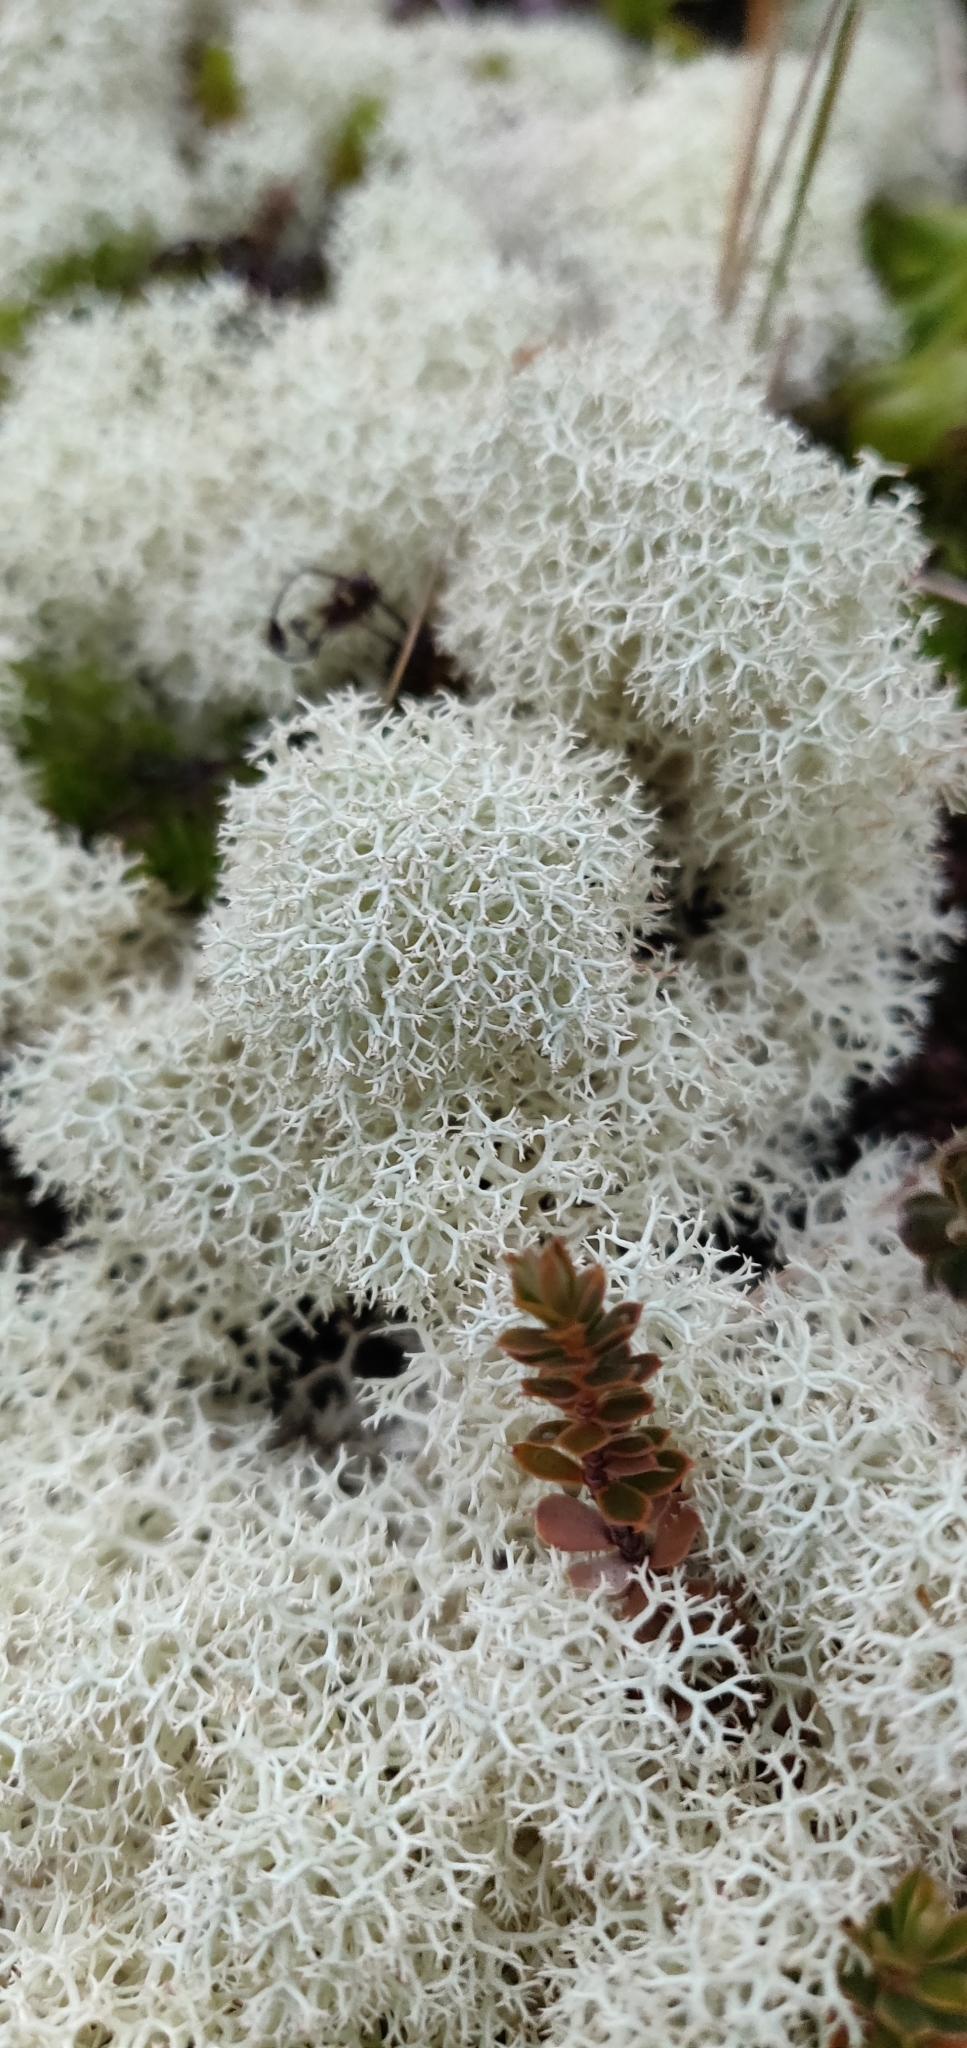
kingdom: Fungi
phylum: Ascomycota
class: Lecanoromycetes
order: Lecanorales
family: Cladoniaceae
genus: Cladonia
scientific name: Cladonia confusa
